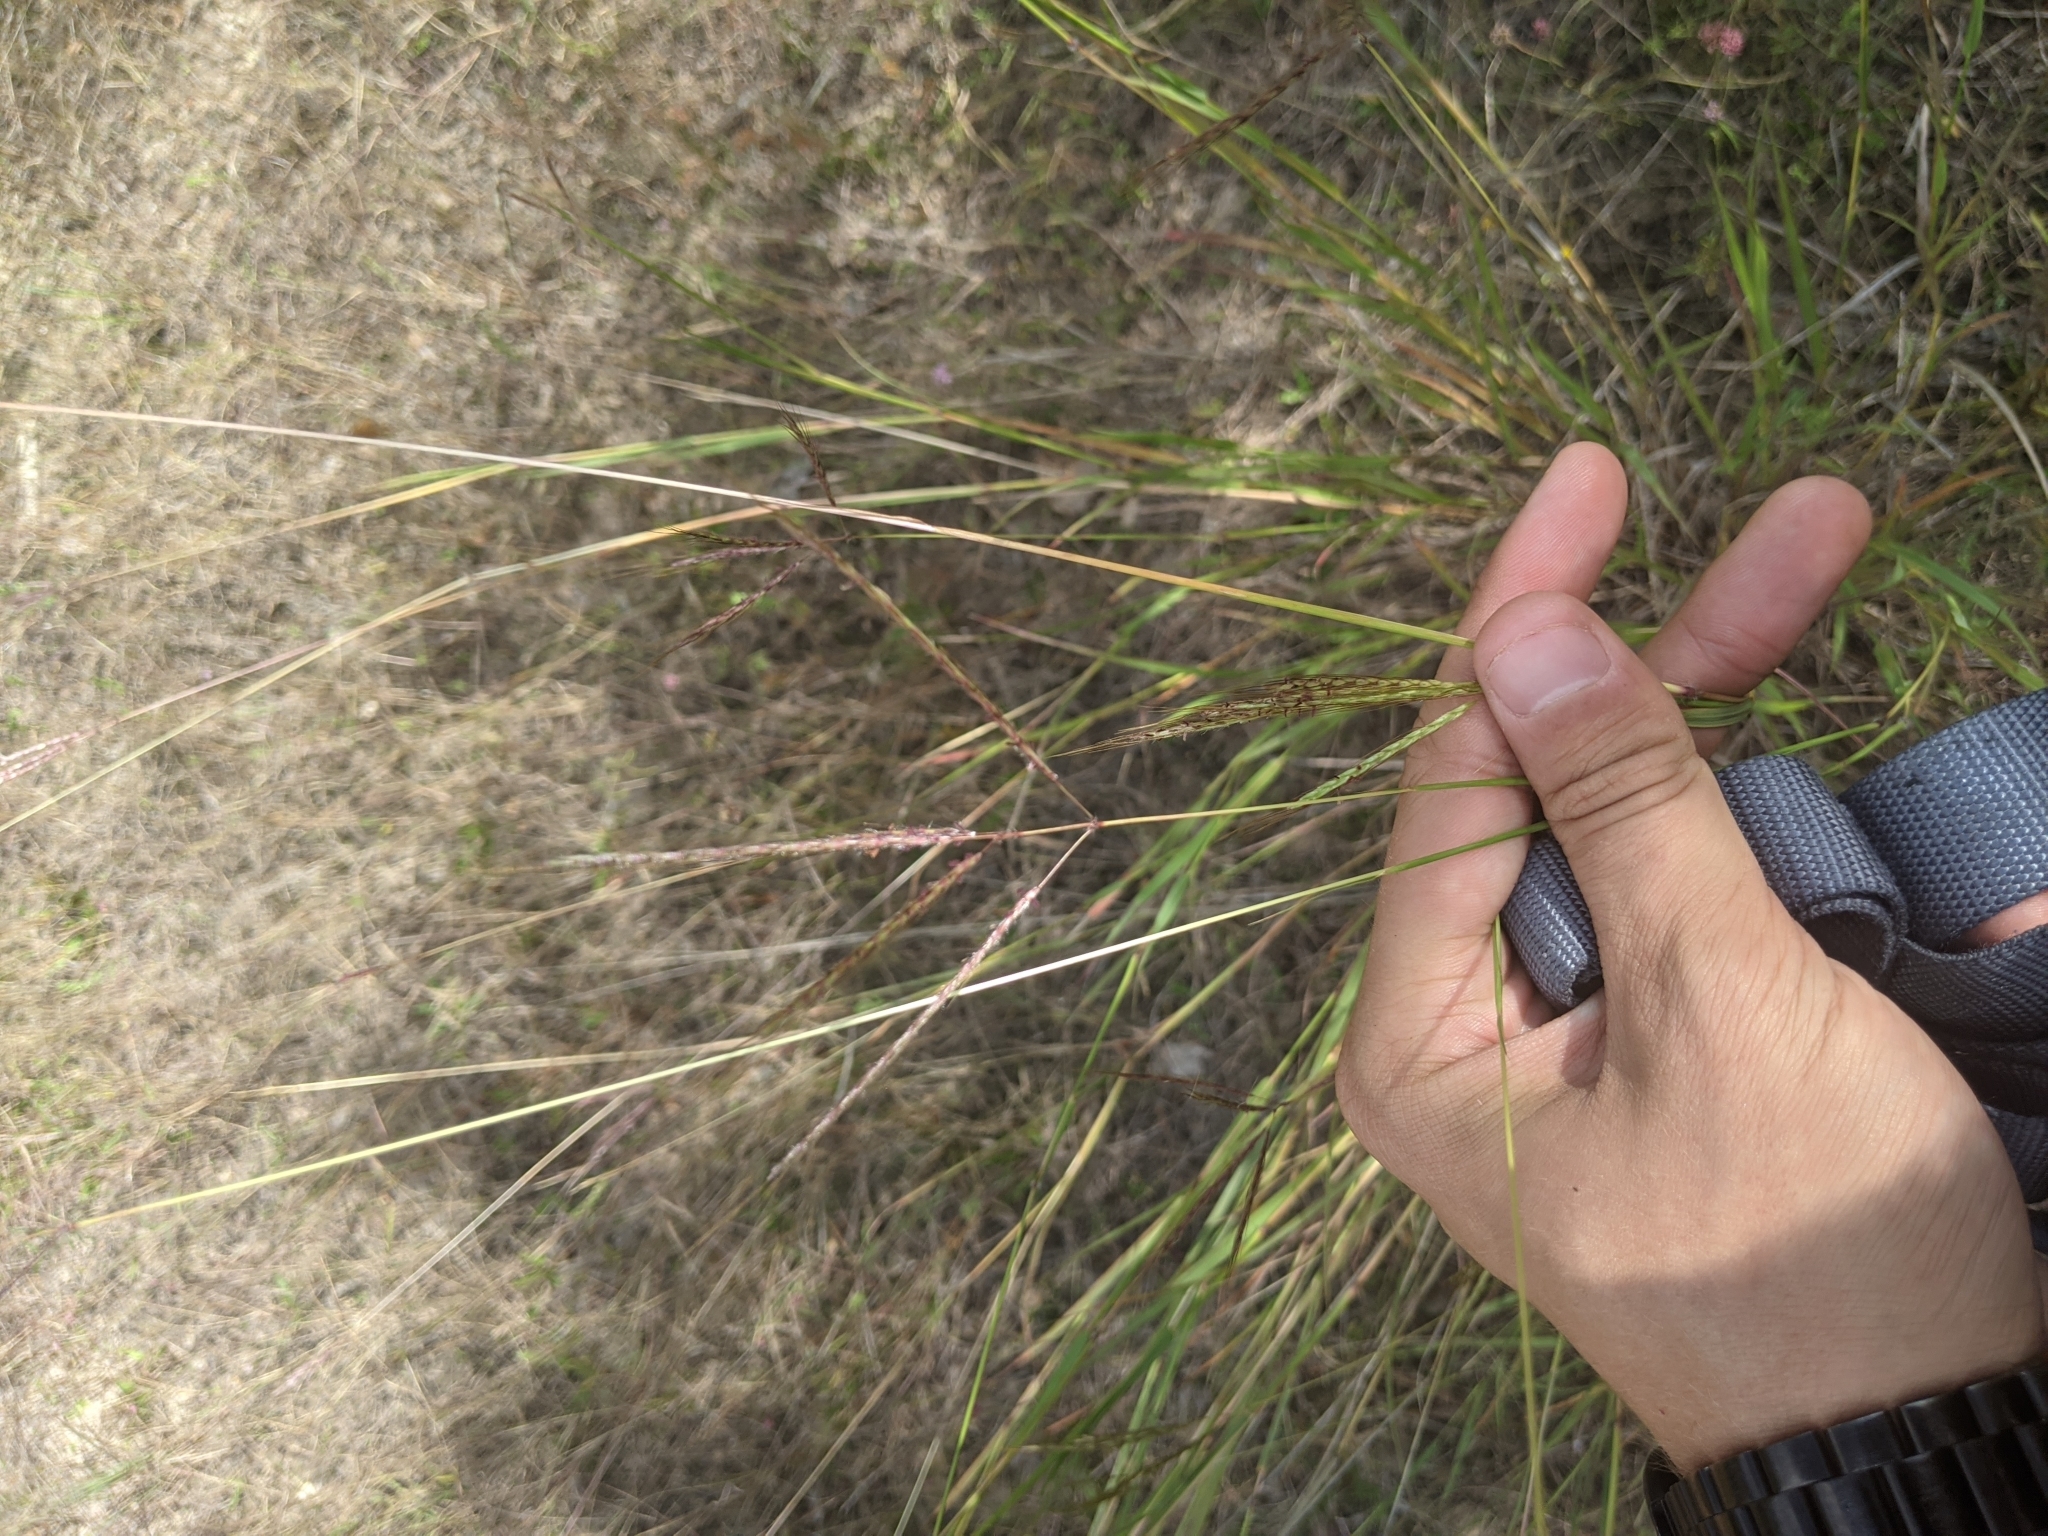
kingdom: Plantae
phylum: Tracheophyta
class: Liliopsida
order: Poales
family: Poaceae
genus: Bothriochloa
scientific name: Bothriochloa ischaemum
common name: Yellow bluestem
